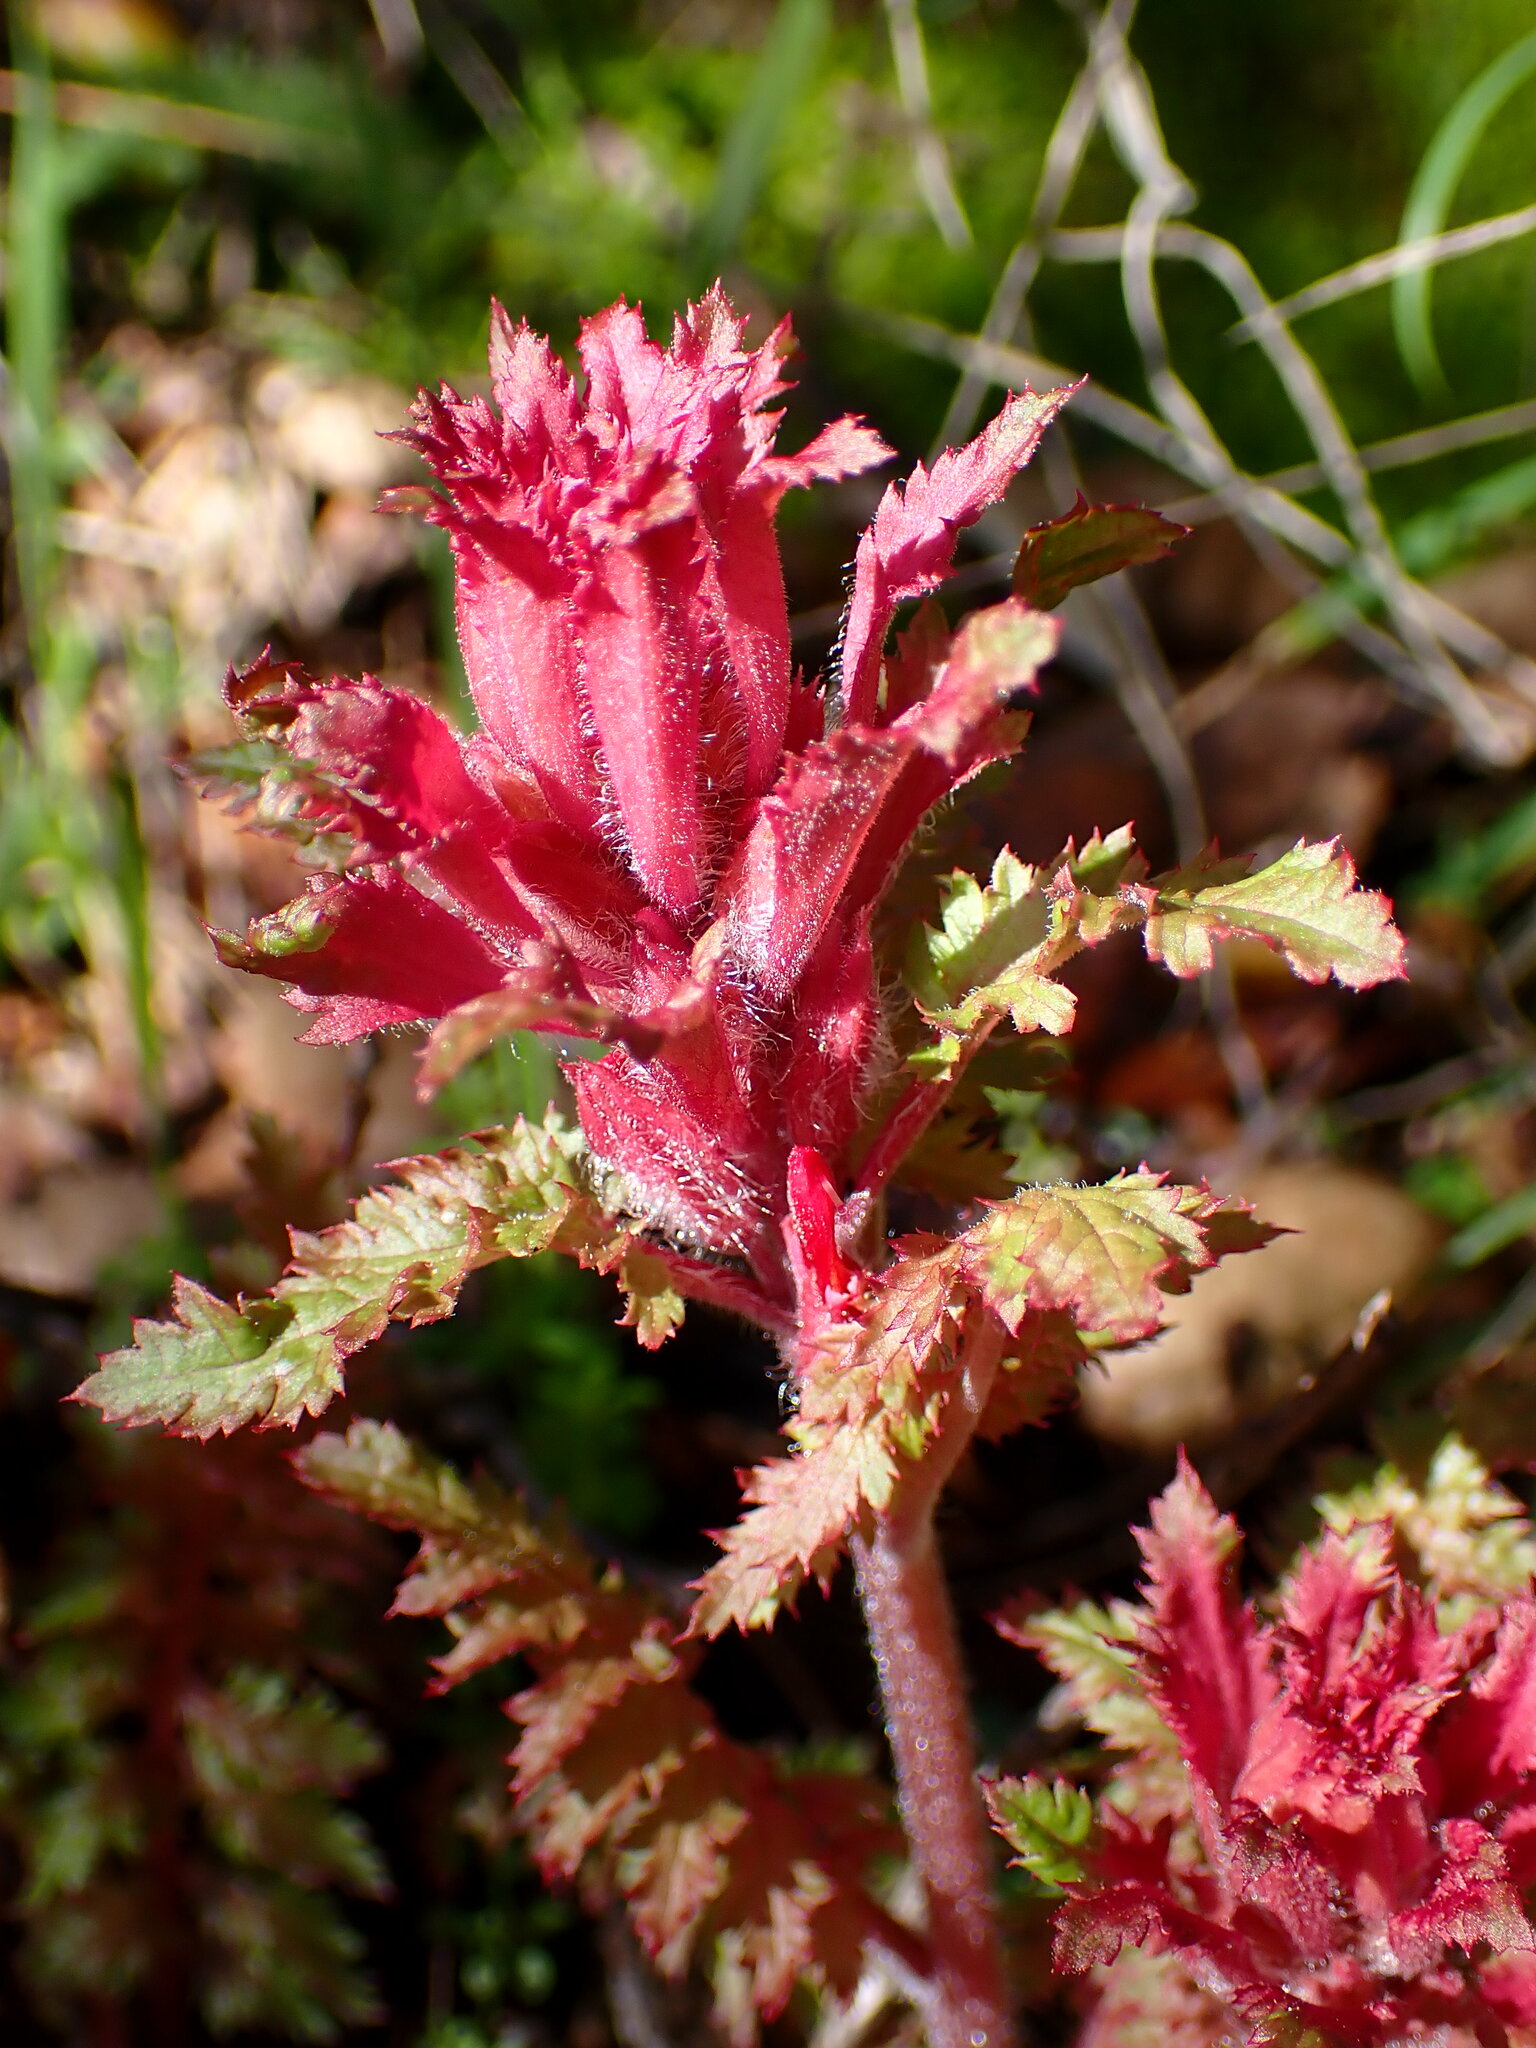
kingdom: Plantae
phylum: Tracheophyta
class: Magnoliopsida
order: Lamiales
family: Orobanchaceae
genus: Pedicularis
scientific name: Pedicularis densiflora
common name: Indian warrior
